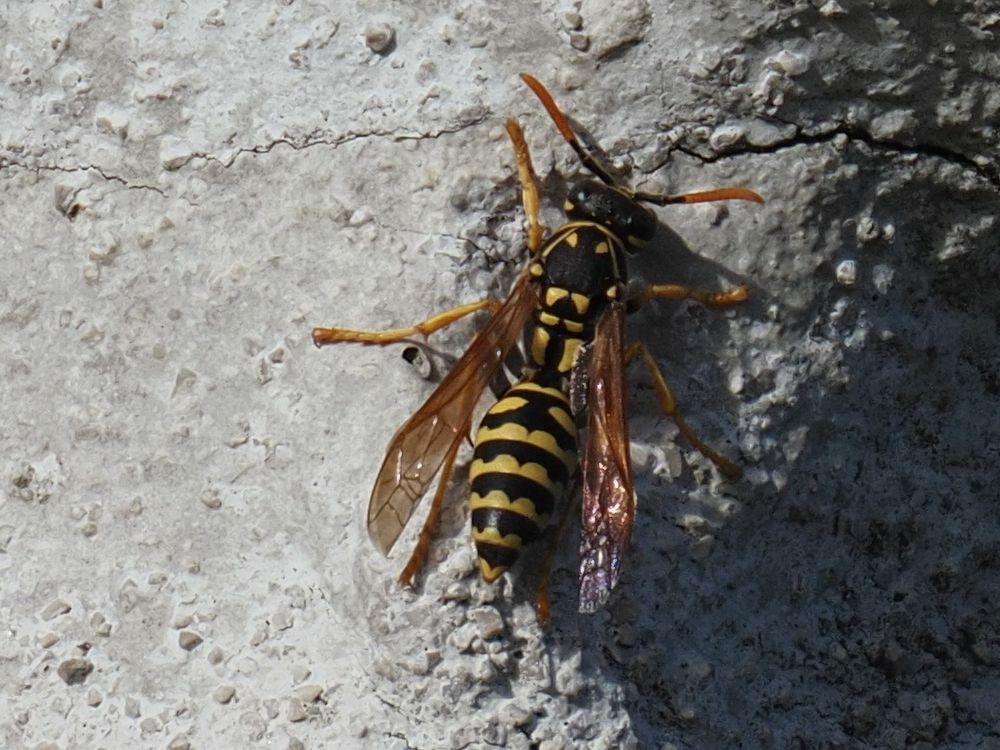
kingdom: Animalia
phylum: Arthropoda
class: Insecta
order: Hymenoptera
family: Eumenidae
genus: Polistes
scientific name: Polistes dominula
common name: Paper wasp
